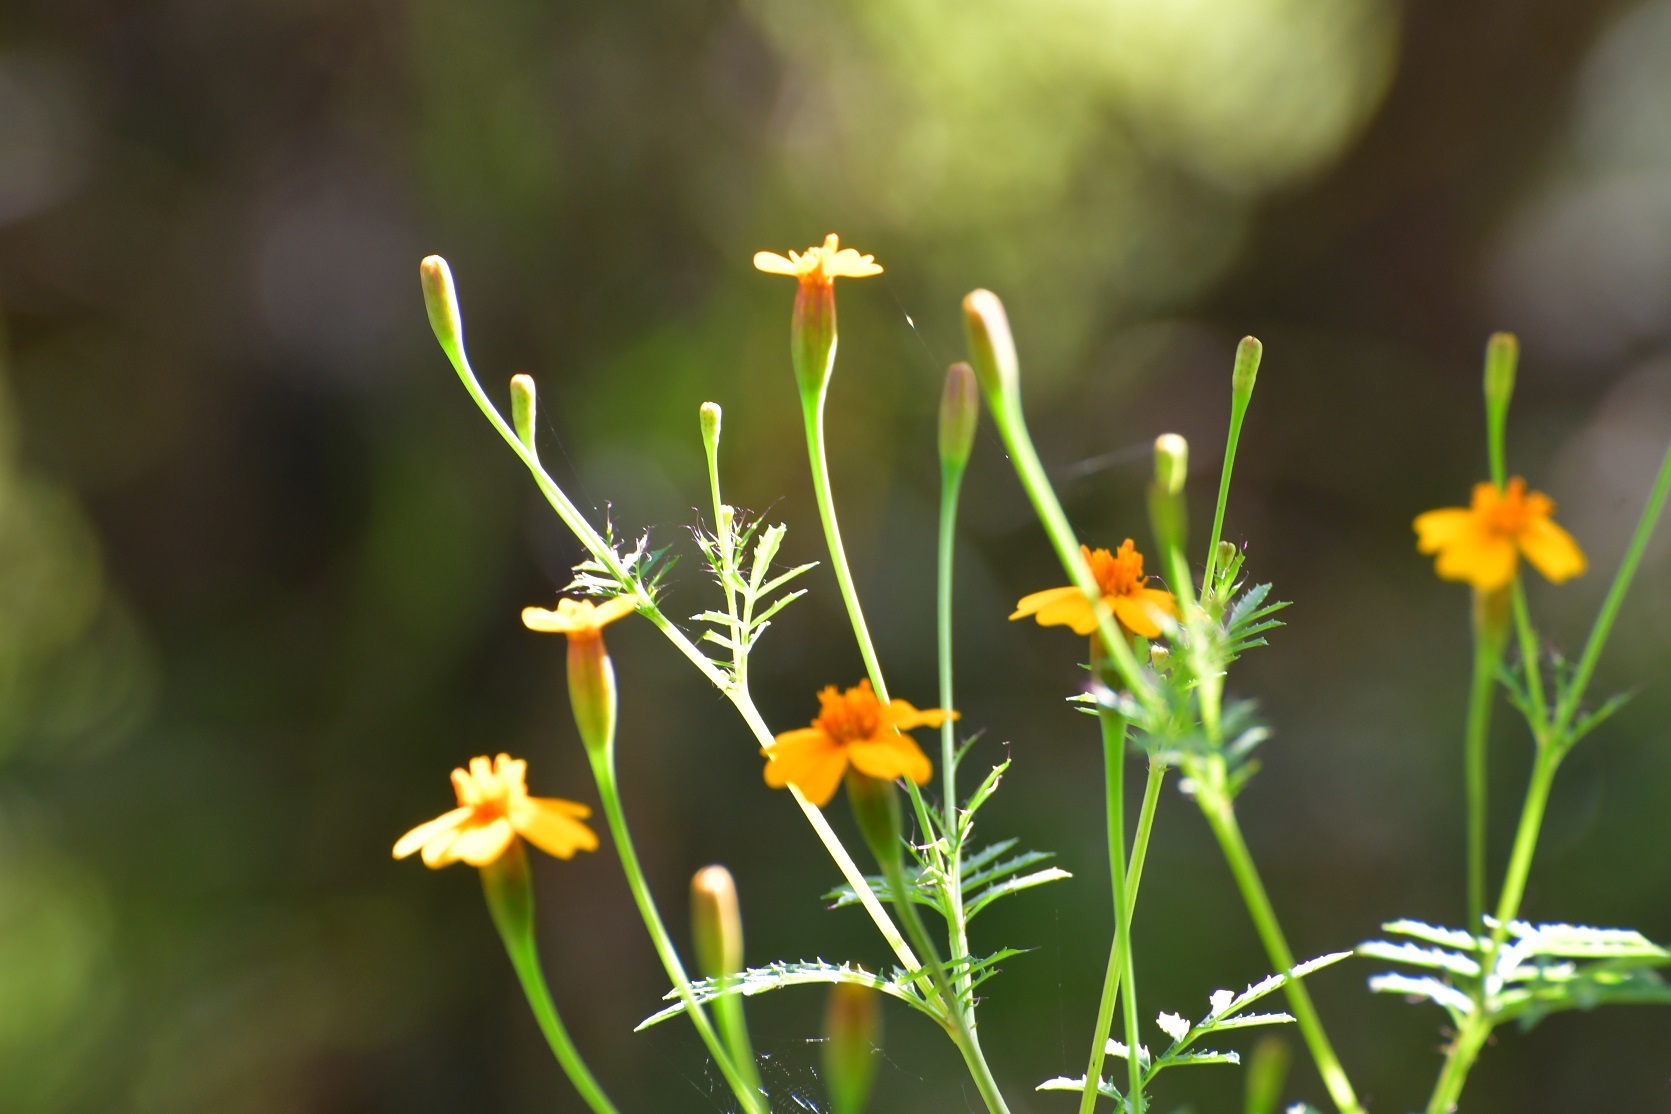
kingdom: Plantae
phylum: Tracheophyta
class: Magnoliopsida
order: Asterales
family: Asteraceae
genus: Tagetes
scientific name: Tagetes tenuifolia
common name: Signet marigold
